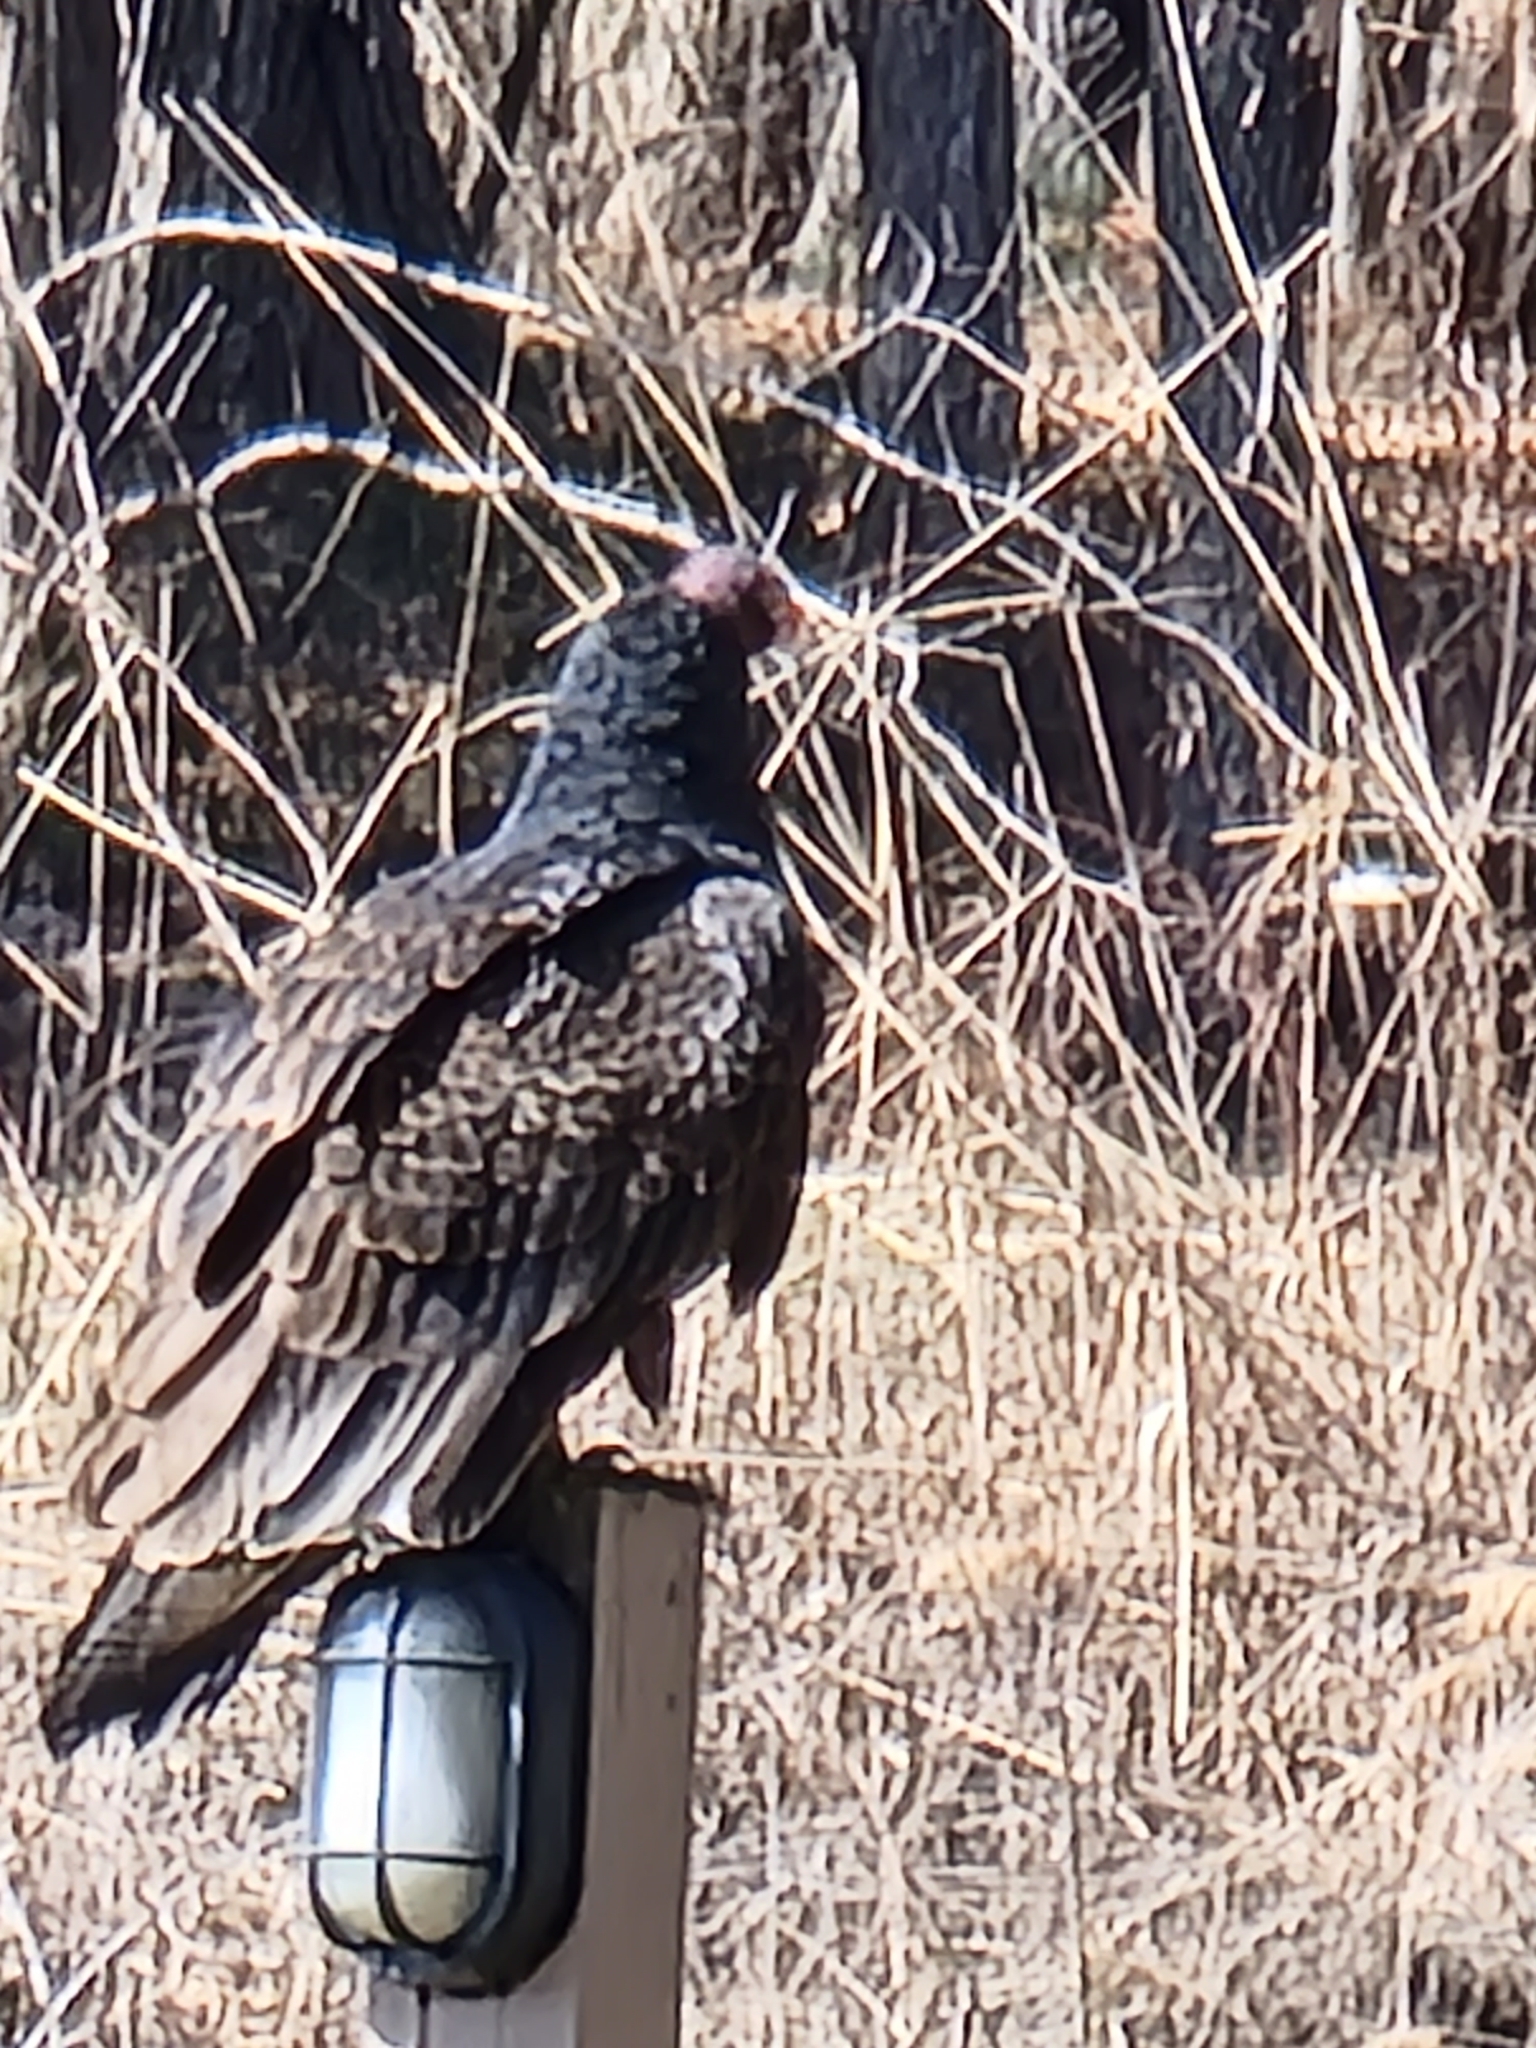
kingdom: Animalia
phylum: Chordata
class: Aves
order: Accipitriformes
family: Cathartidae
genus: Cathartes
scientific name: Cathartes aura
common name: Turkey vulture
